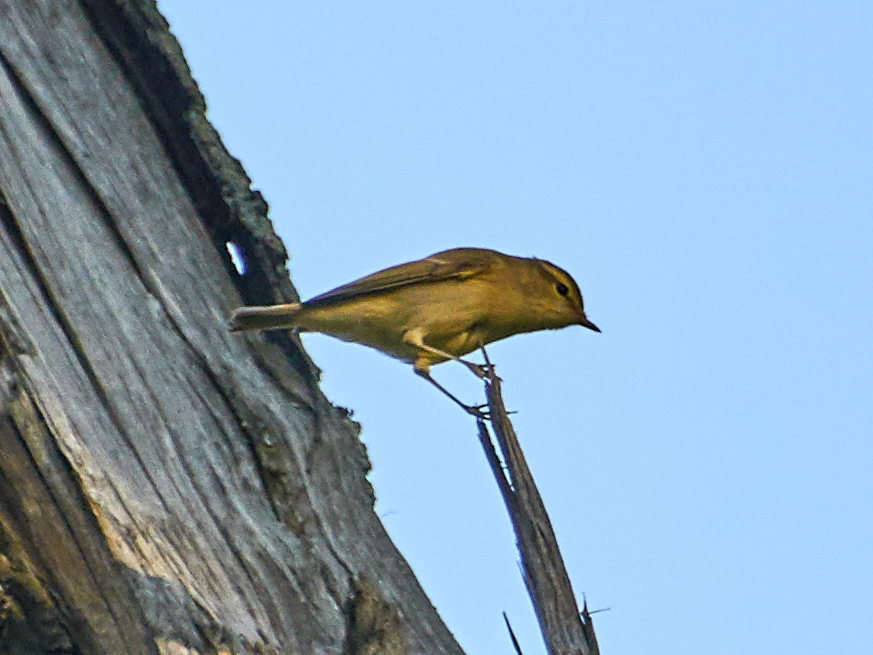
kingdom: Animalia
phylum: Chordata
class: Aves
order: Passeriformes
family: Phylloscopidae
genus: Phylloscopus
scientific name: Phylloscopus trochiloides
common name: Greenish warbler
